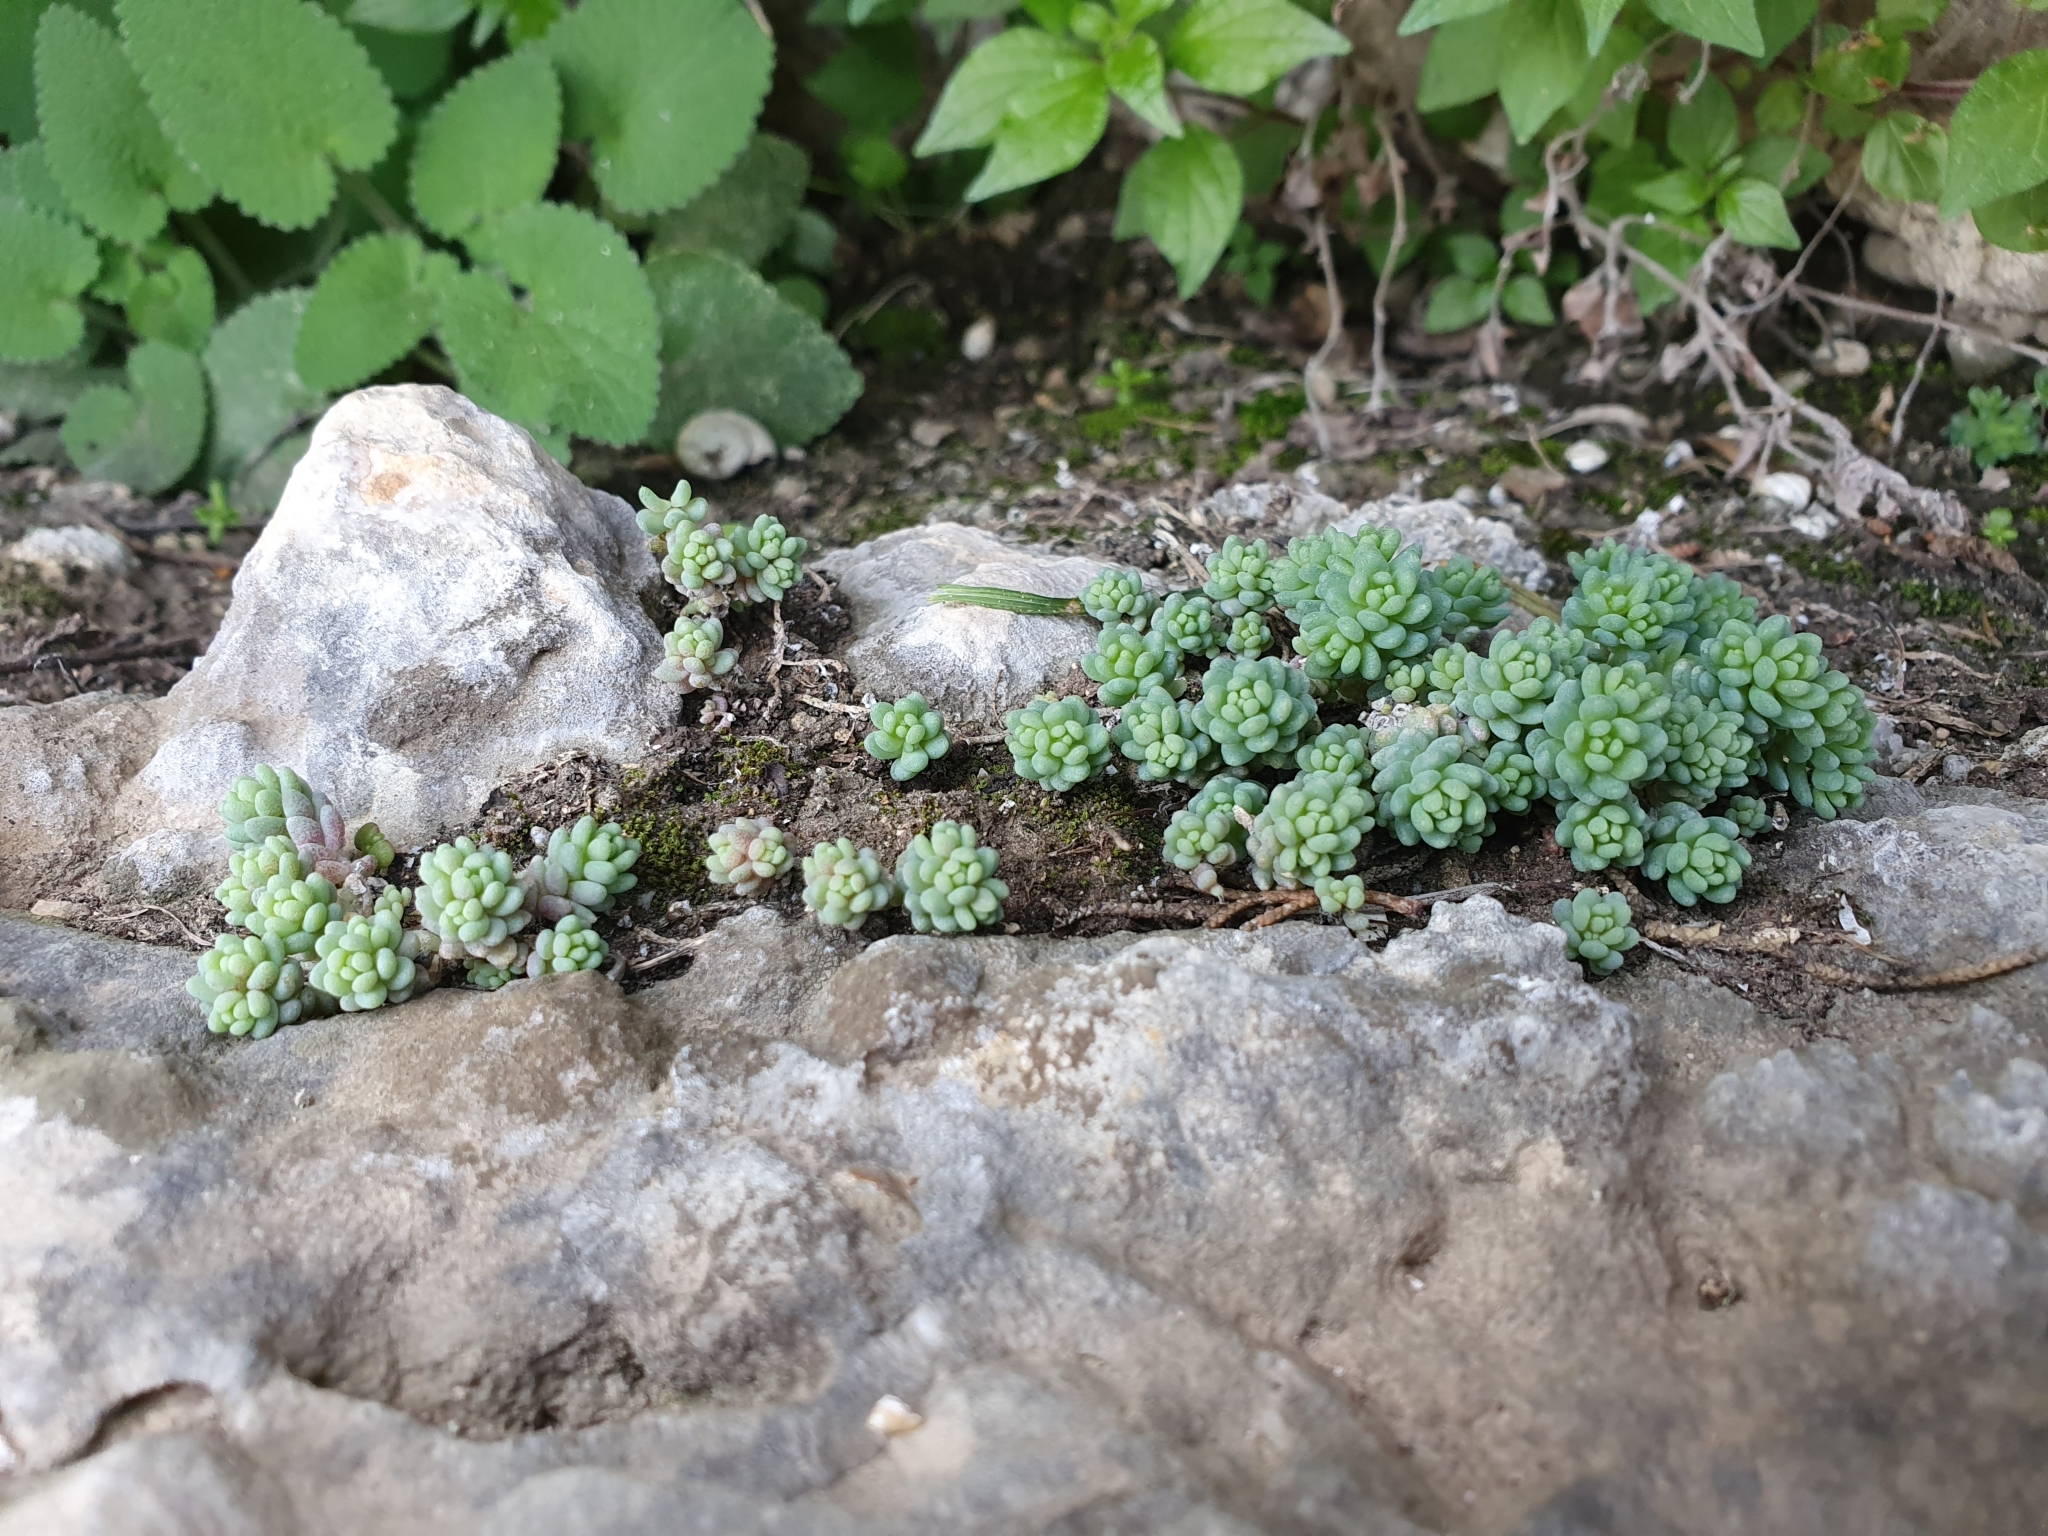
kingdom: Plantae
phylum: Tracheophyta
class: Magnoliopsida
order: Saxifragales
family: Crassulaceae
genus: Sedum
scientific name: Sedum dasyphyllum
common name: Thick-leaf stonecrop
